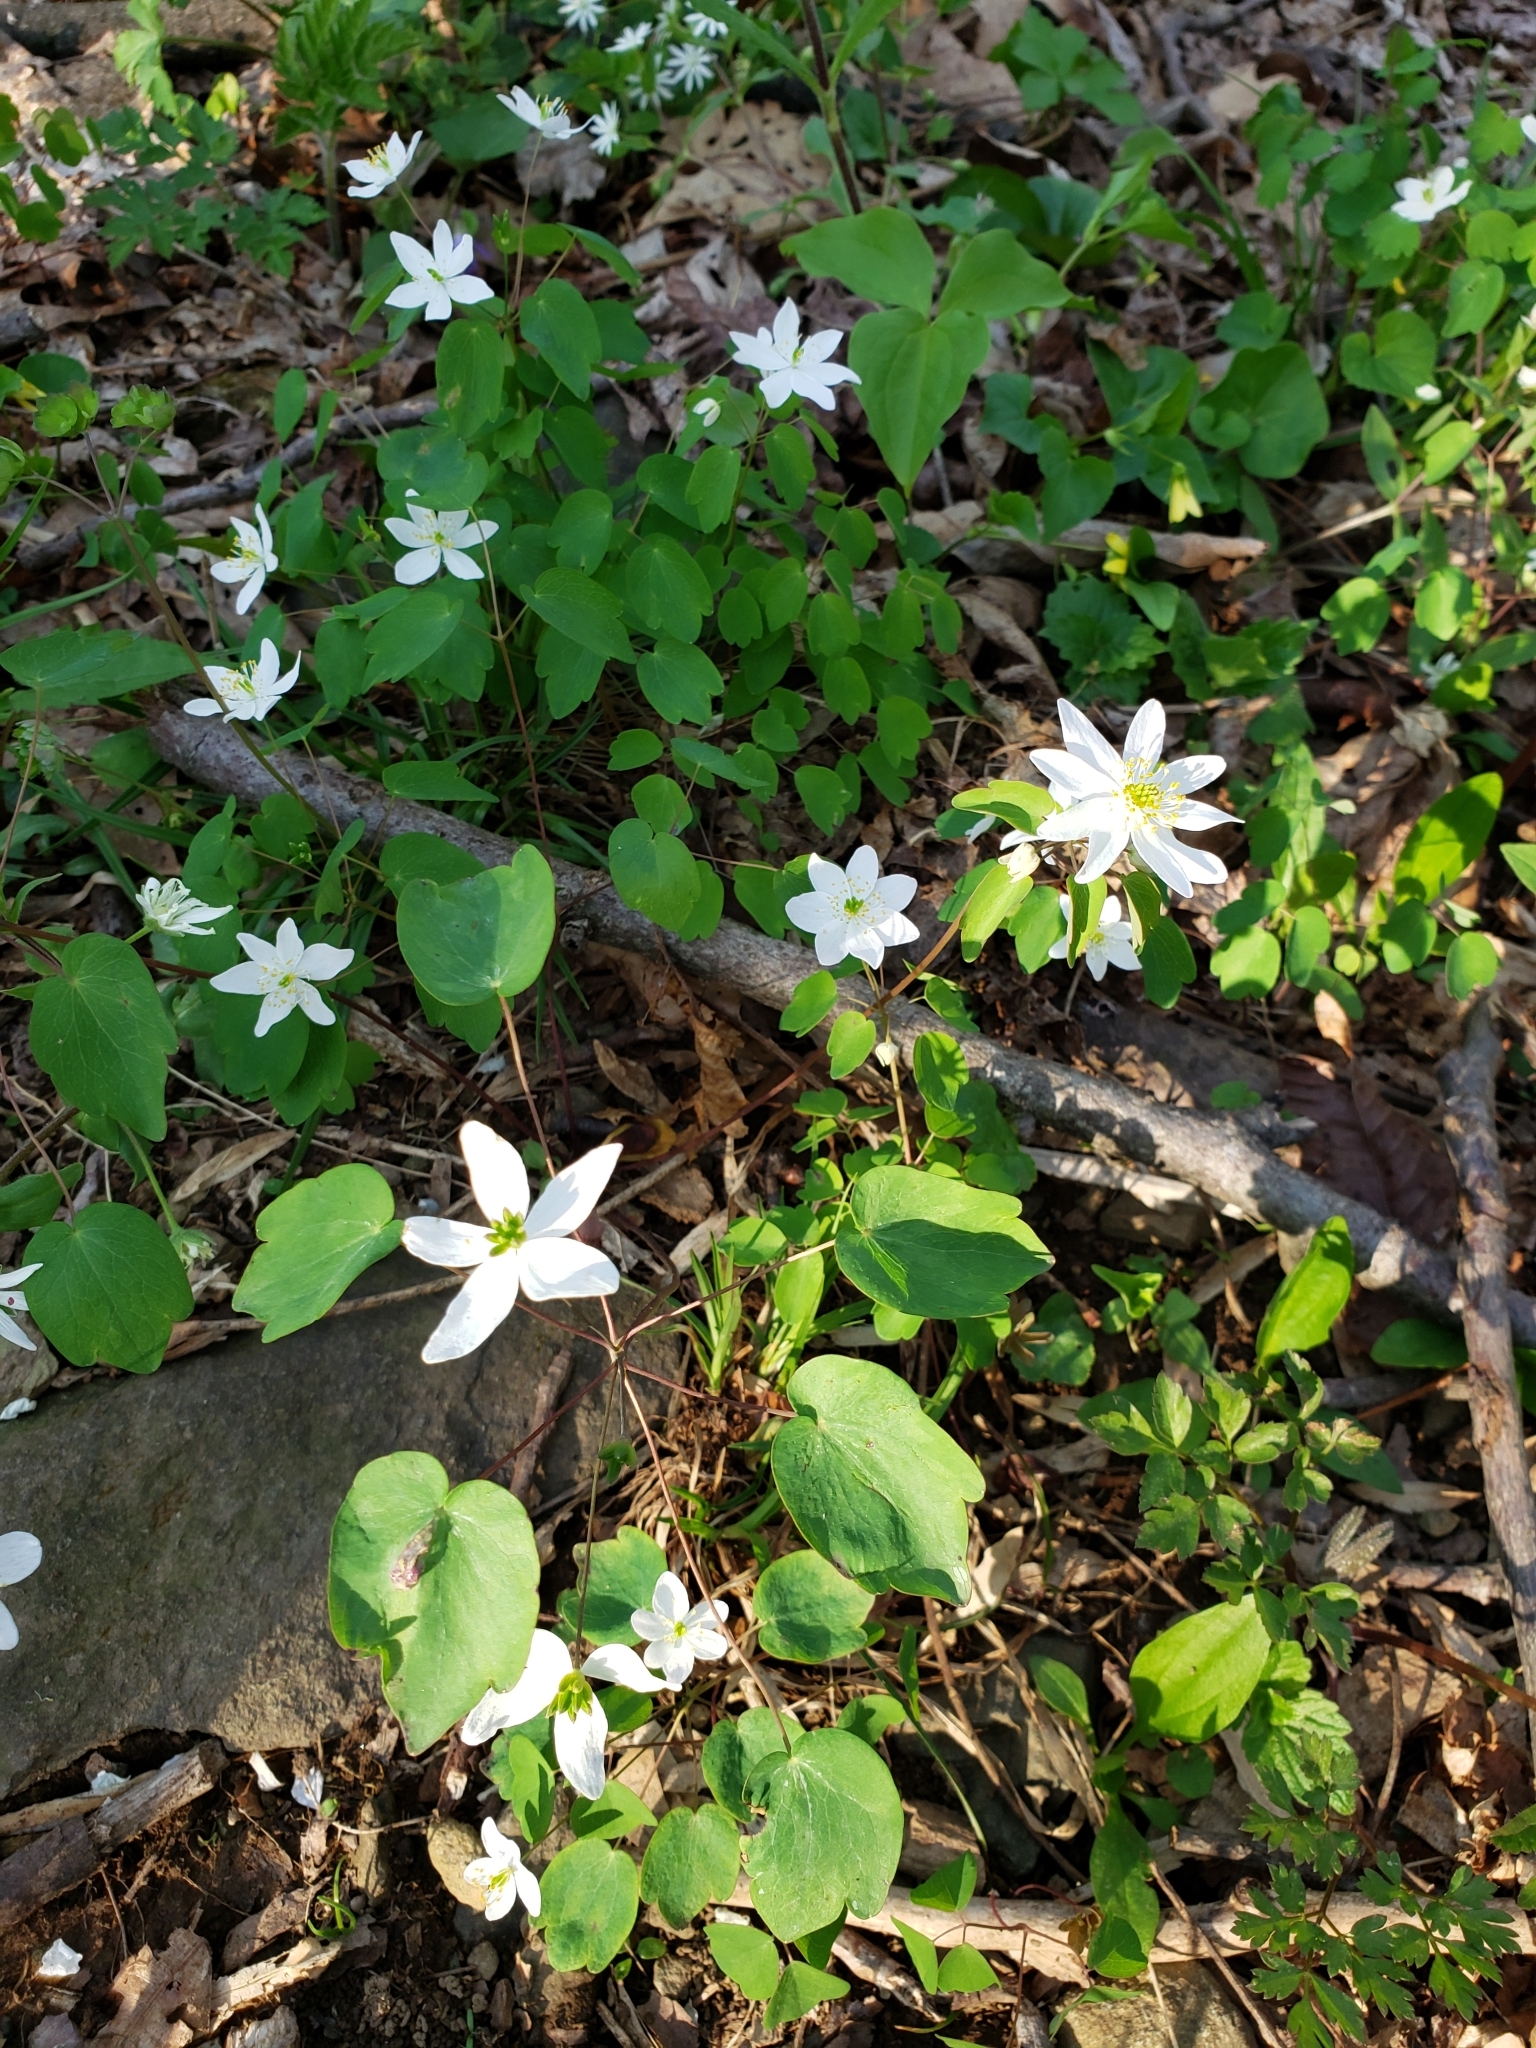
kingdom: Plantae
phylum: Tracheophyta
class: Magnoliopsida
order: Ranunculales
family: Ranunculaceae
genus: Thalictrum
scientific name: Thalictrum thalictroides
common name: Rue-anemone
